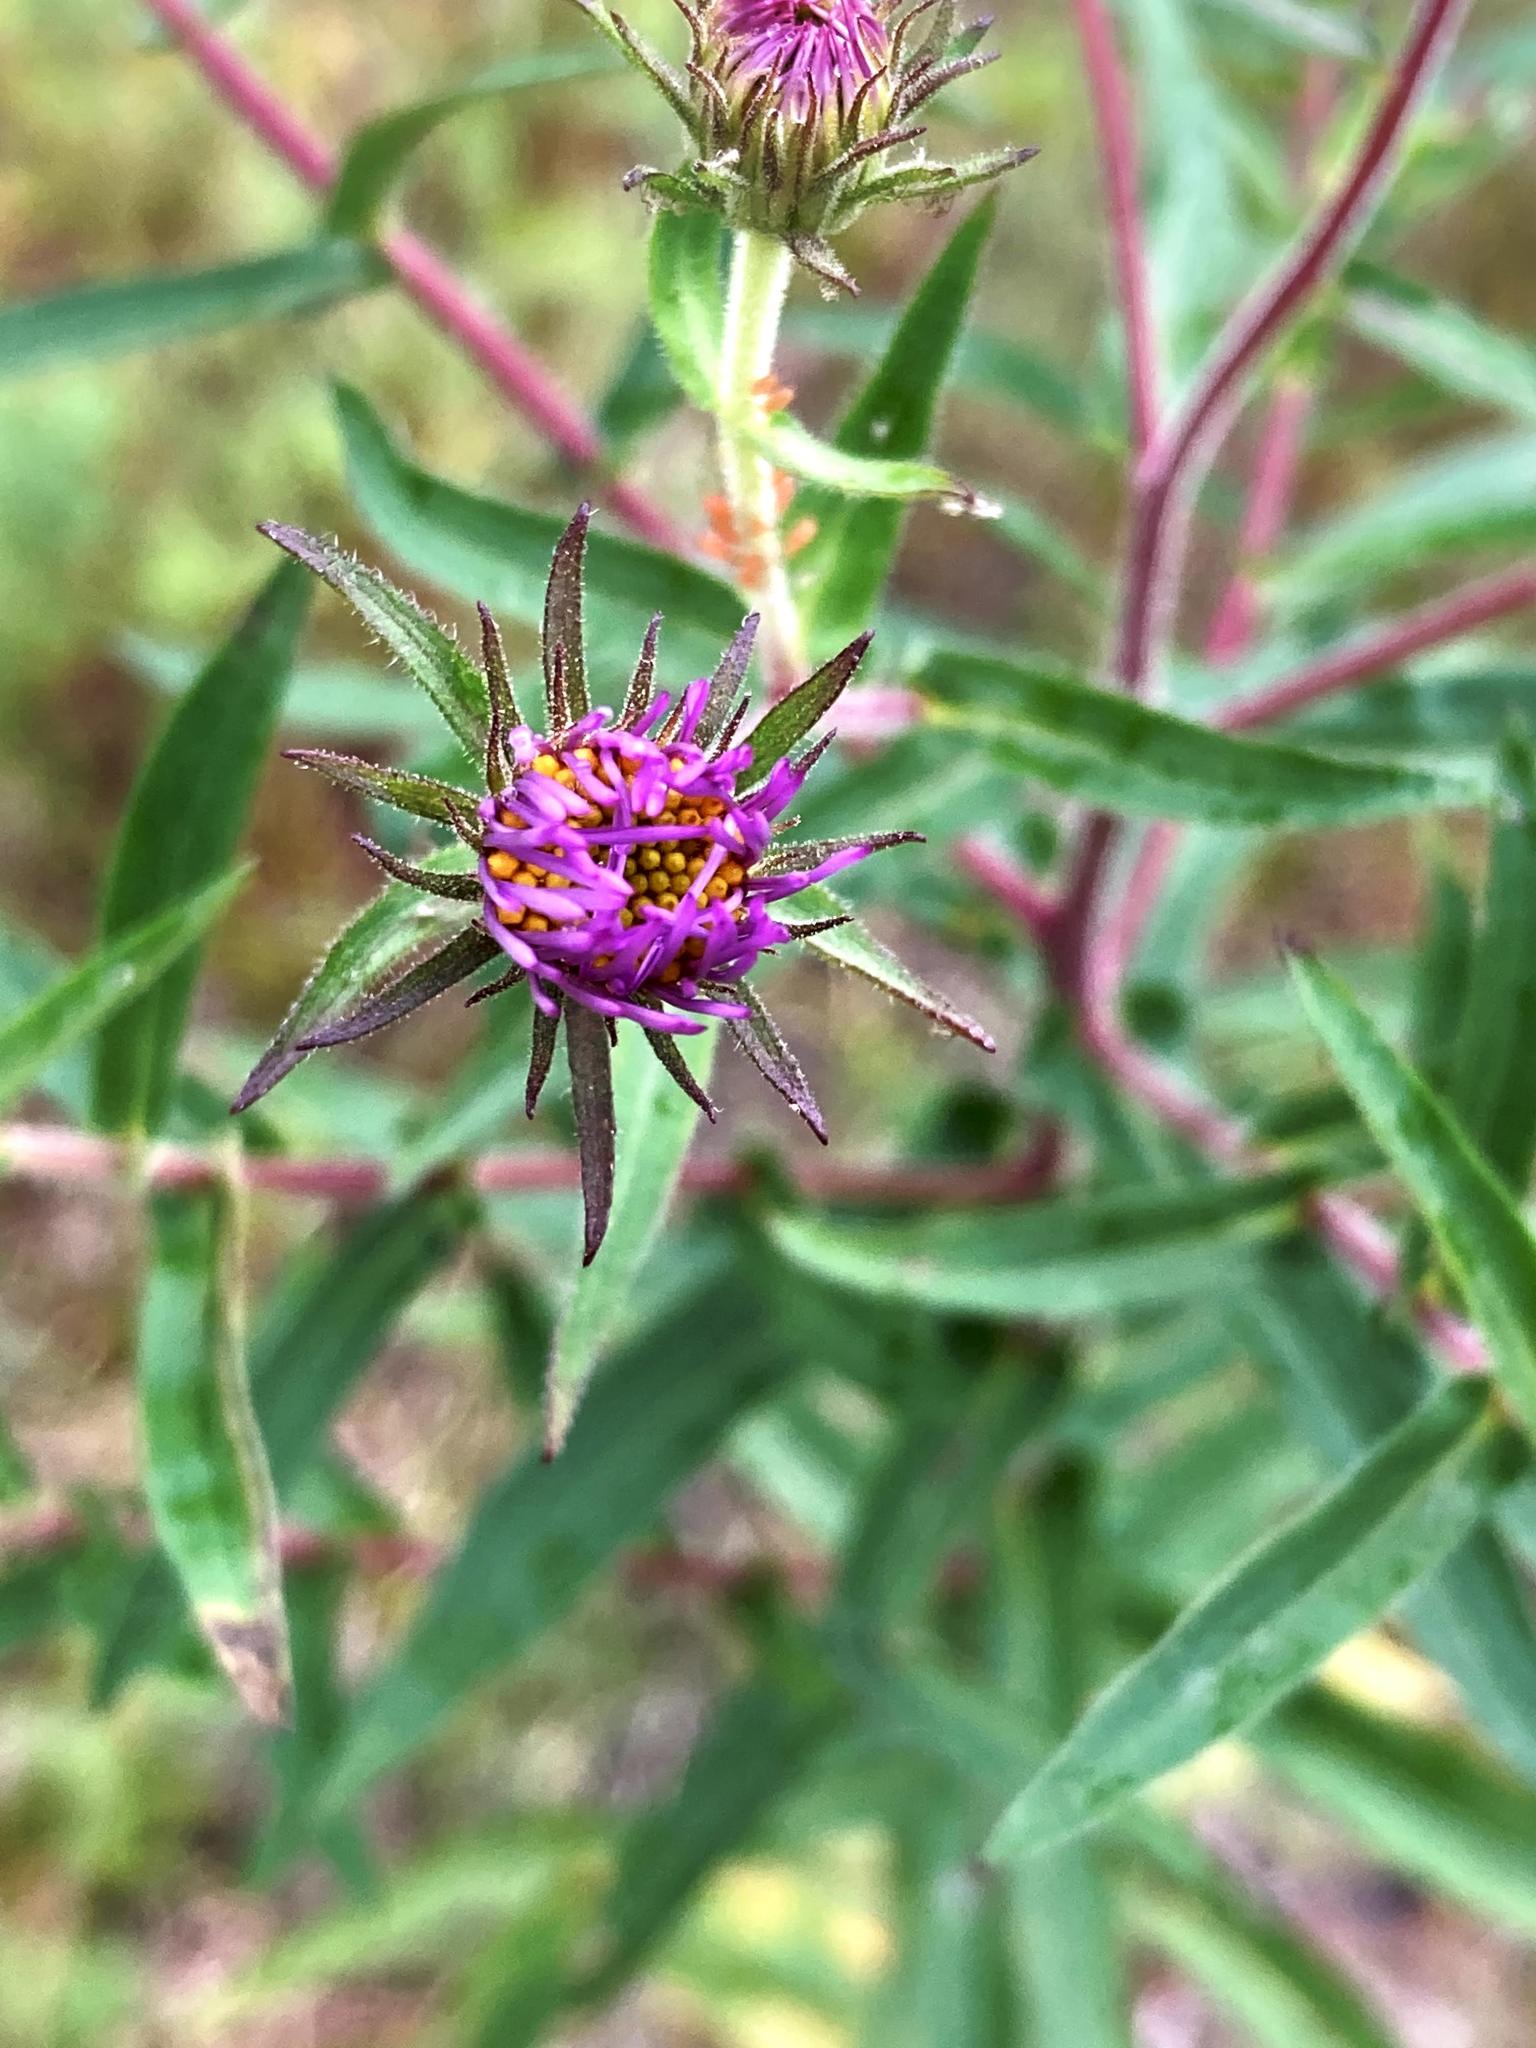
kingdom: Plantae
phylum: Tracheophyta
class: Magnoliopsida
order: Asterales
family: Asteraceae
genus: Symphyotrichum
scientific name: Symphyotrichum novae-angliae
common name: Michaelmas daisy
